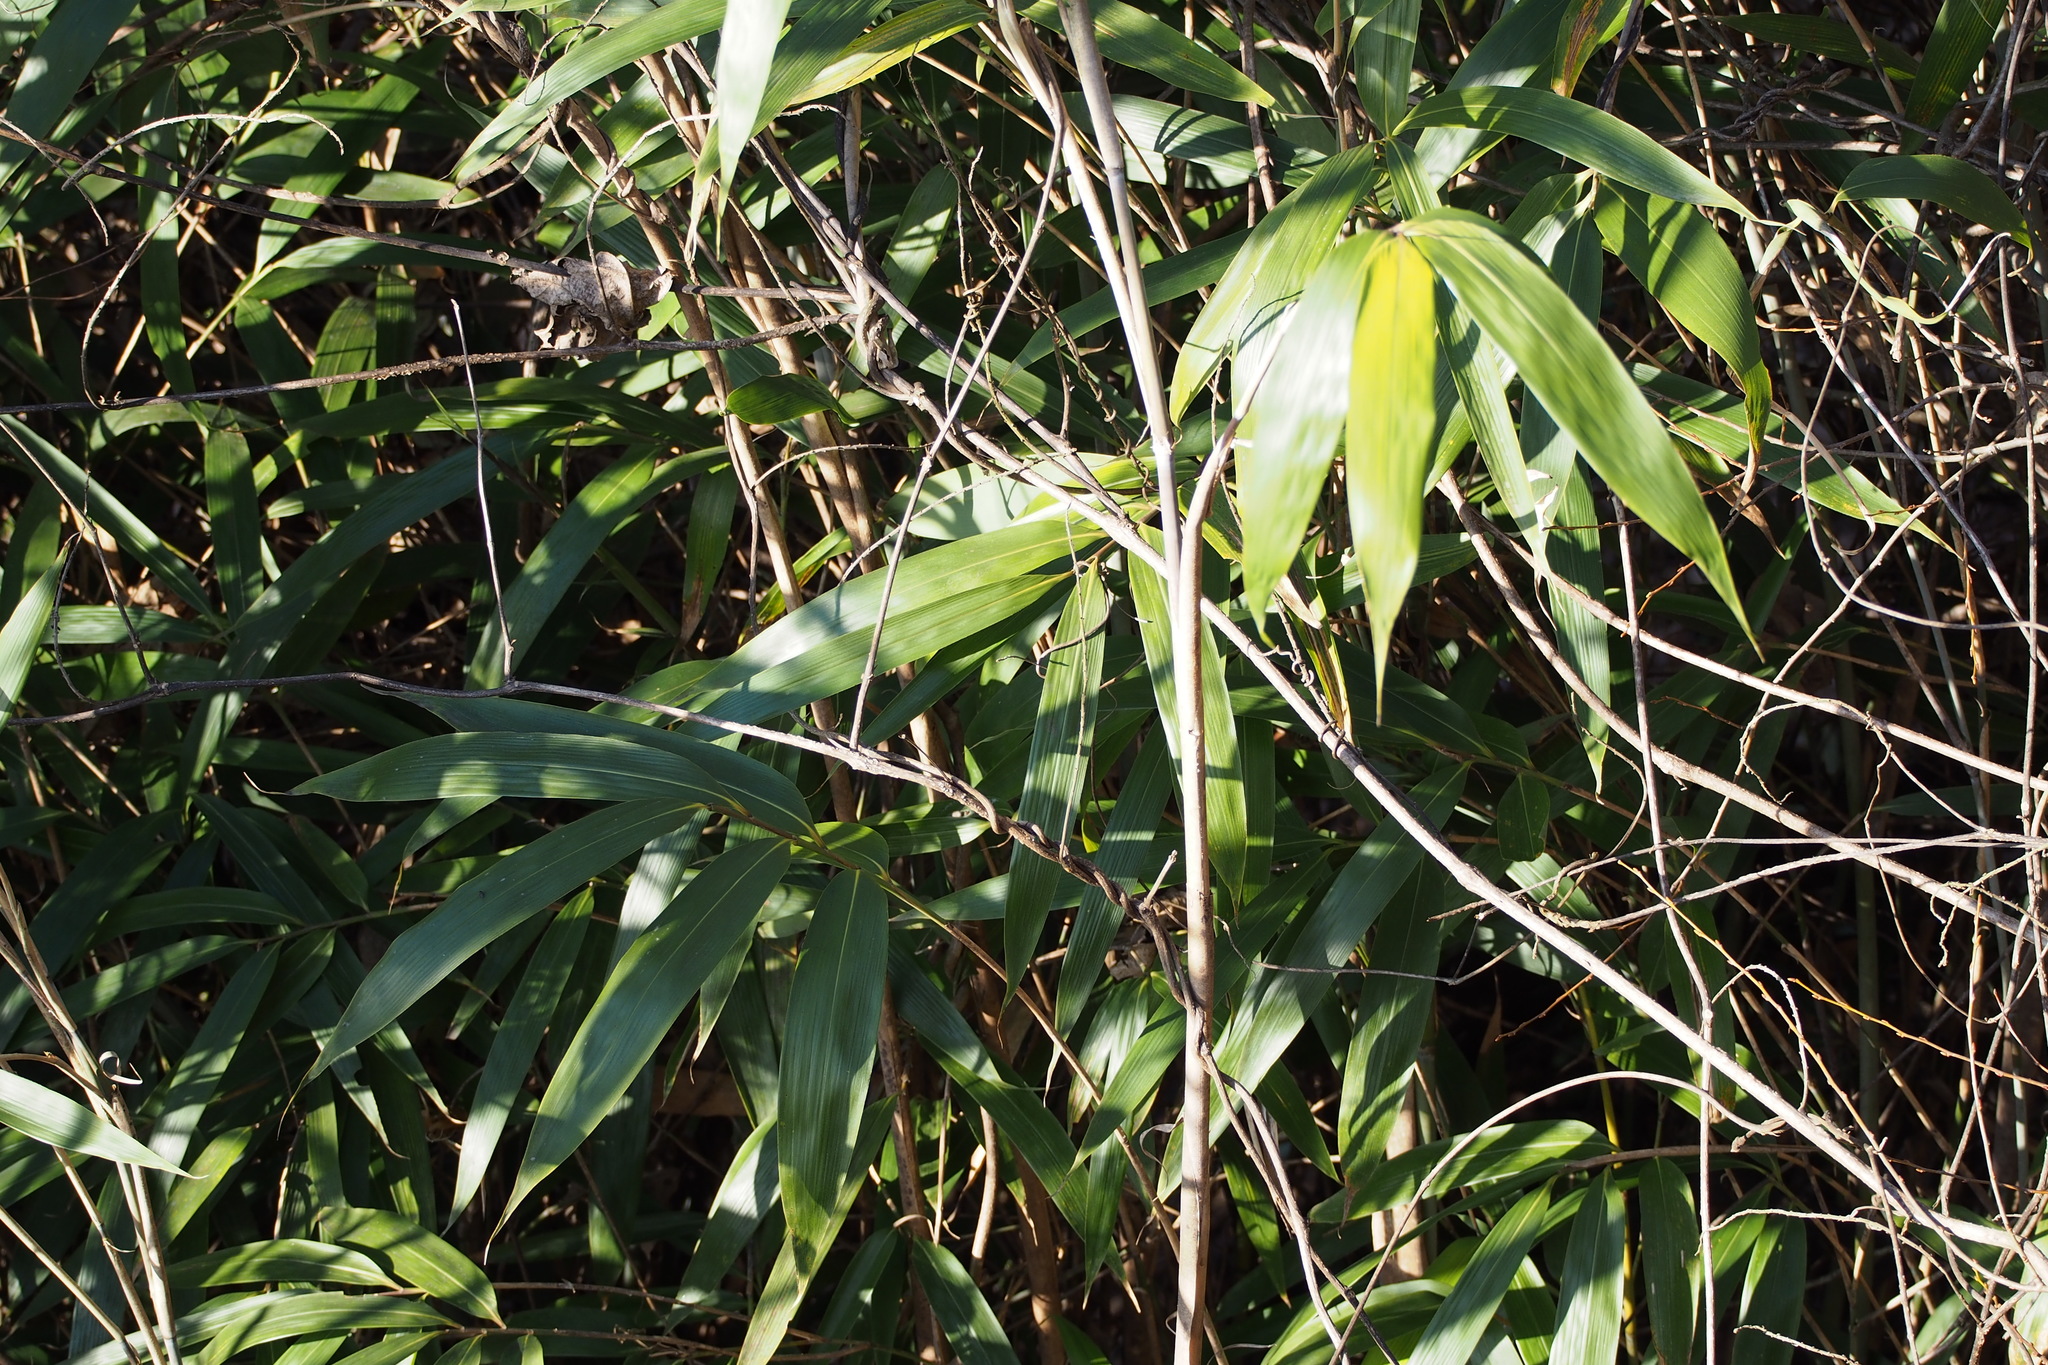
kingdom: Plantae
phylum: Tracheophyta
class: Liliopsida
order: Poales
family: Poaceae
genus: Pseudosasa
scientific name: Pseudosasa japonica
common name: Arrow bamboo
